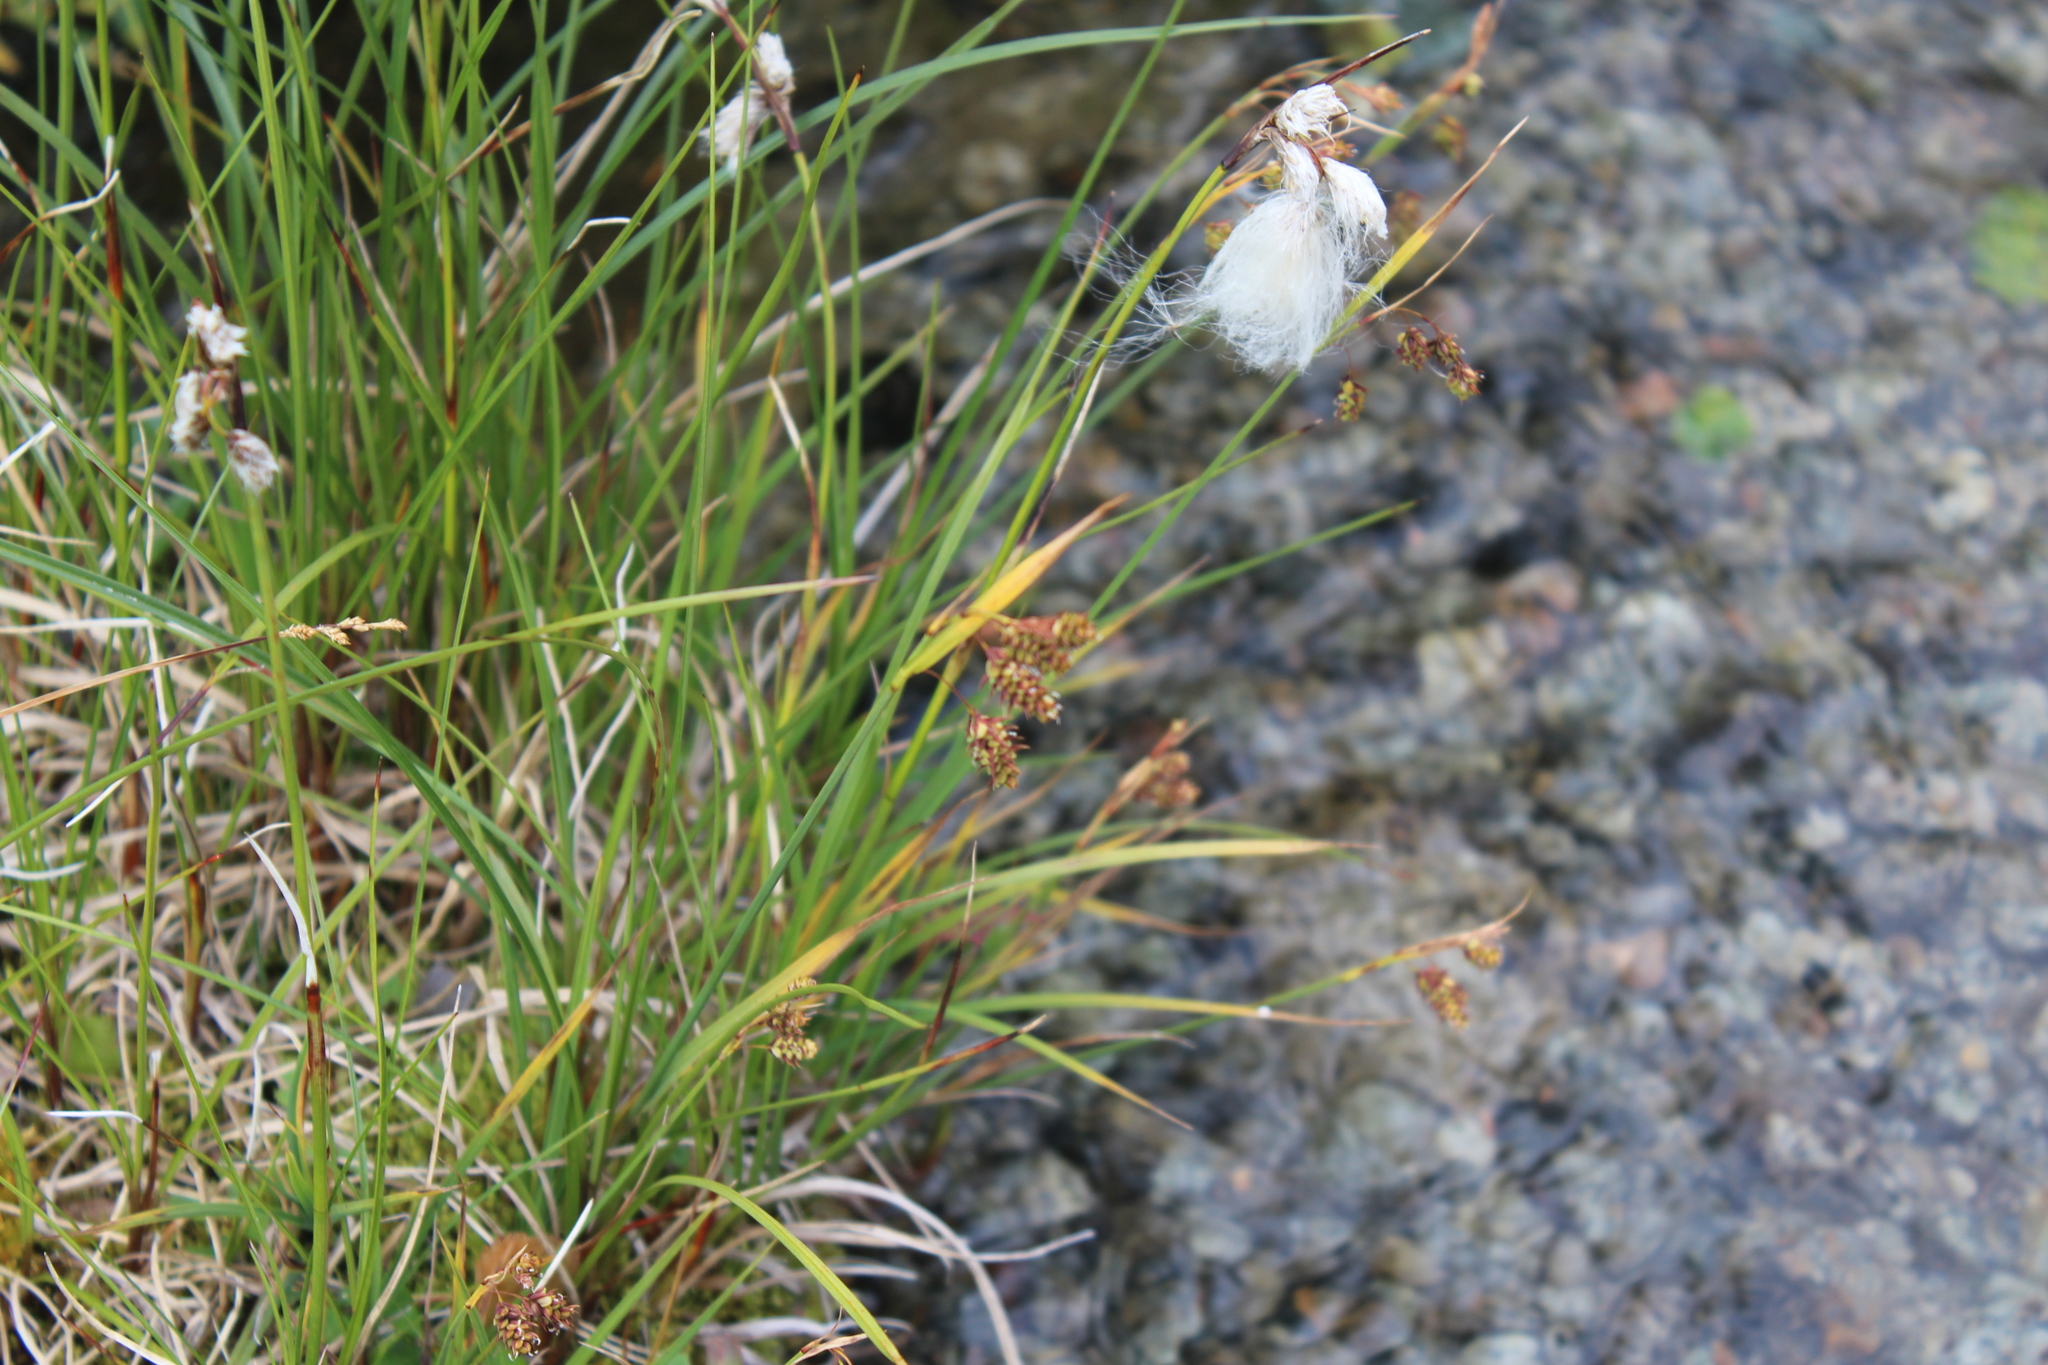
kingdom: Plantae
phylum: Tracheophyta
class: Liliopsida
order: Poales
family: Cyperaceae
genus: Carex
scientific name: Carex magellanica
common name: Bog sedge
